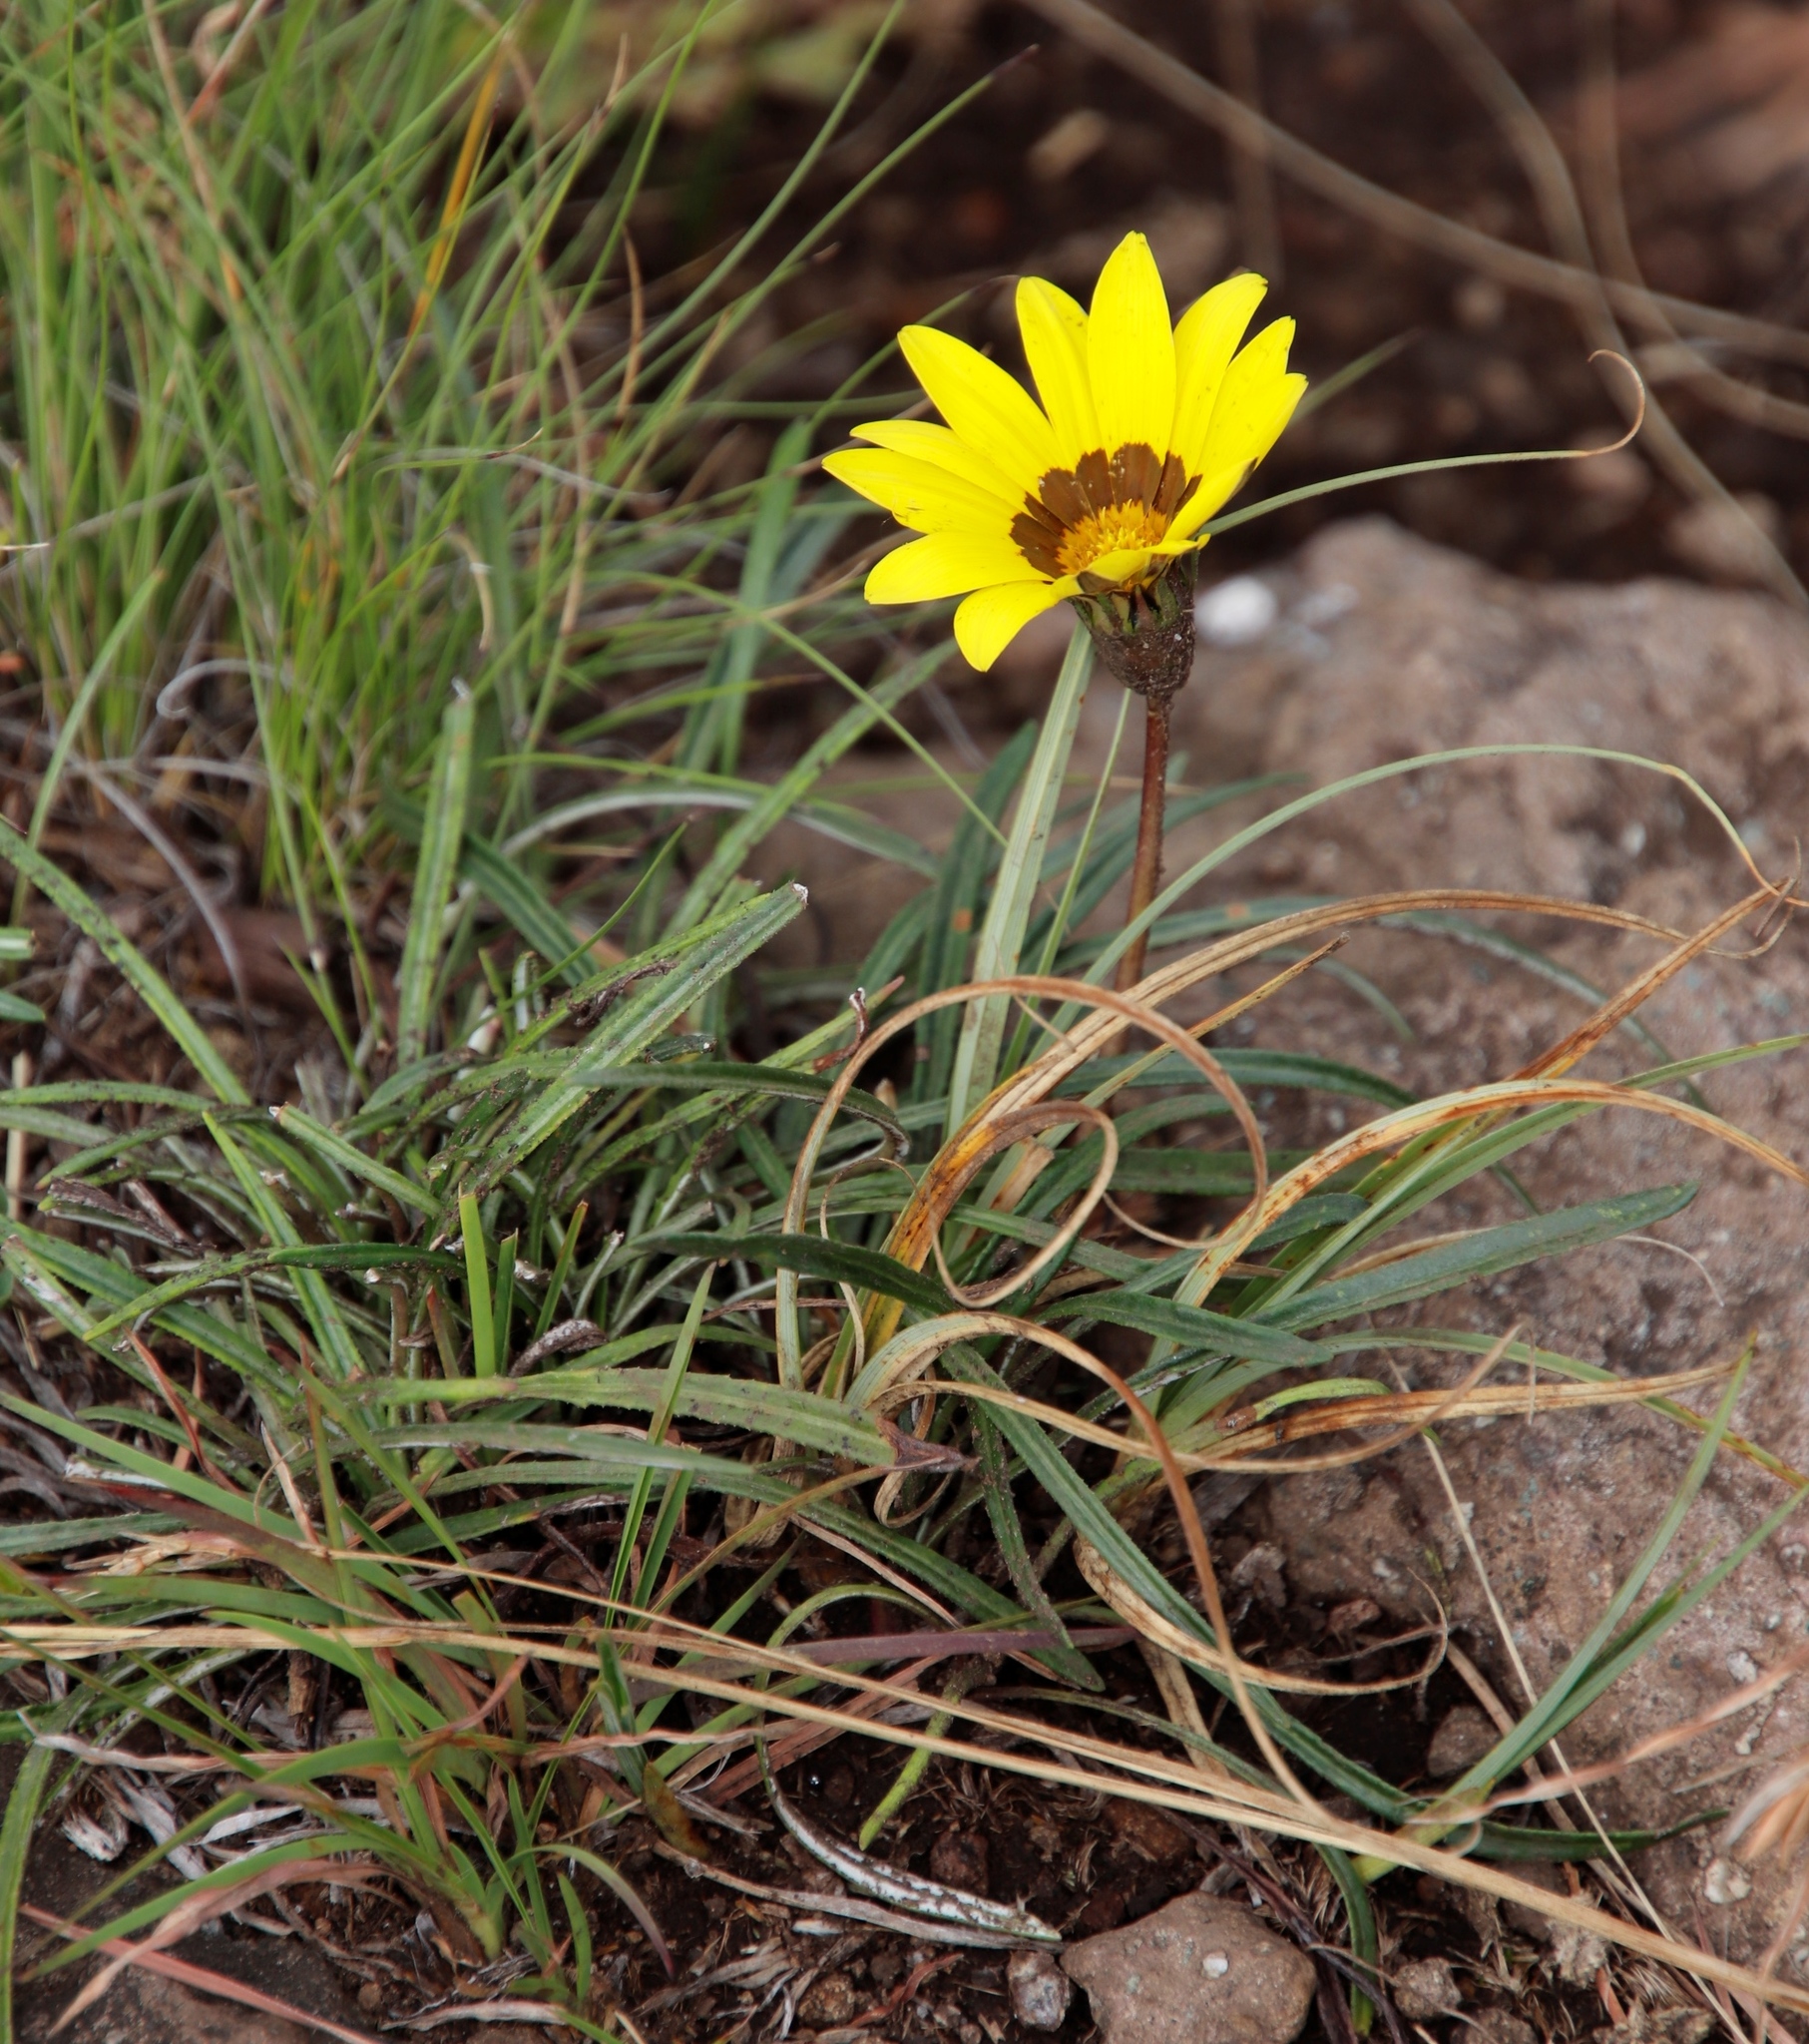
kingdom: Plantae
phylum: Tracheophyta
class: Magnoliopsida
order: Asterales
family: Asteraceae
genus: Gazania
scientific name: Gazania linearis
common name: Treasureflower
